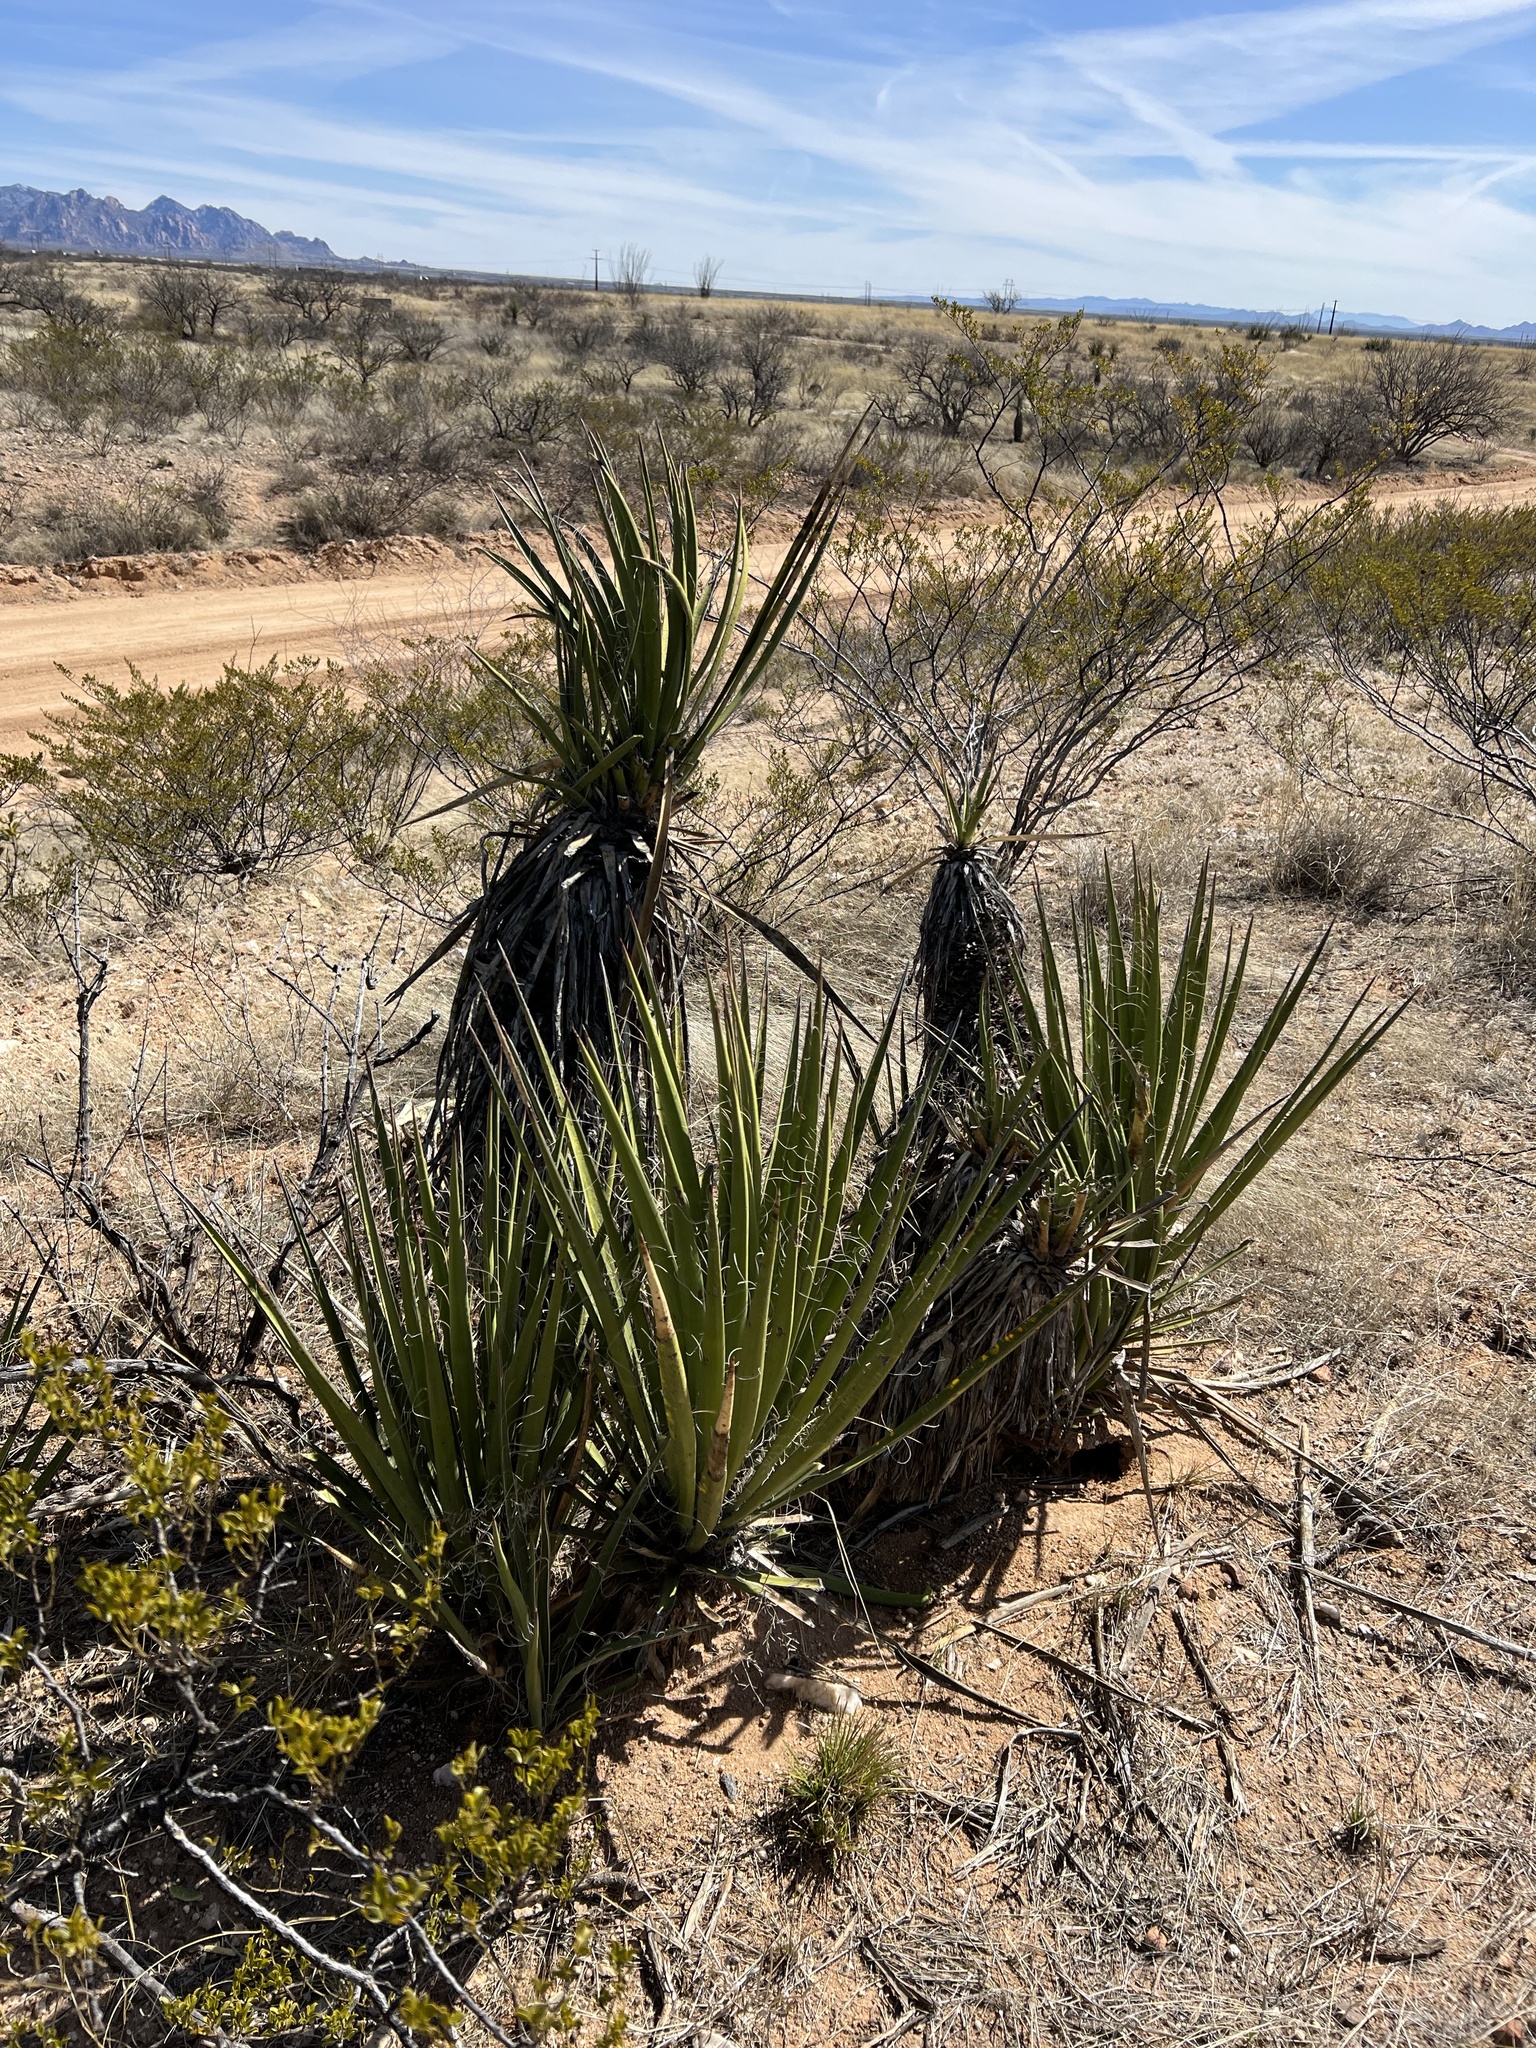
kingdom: Plantae
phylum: Tracheophyta
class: Liliopsida
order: Asparagales
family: Asparagaceae
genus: Yucca
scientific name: Yucca baccata
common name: Banana yucca
